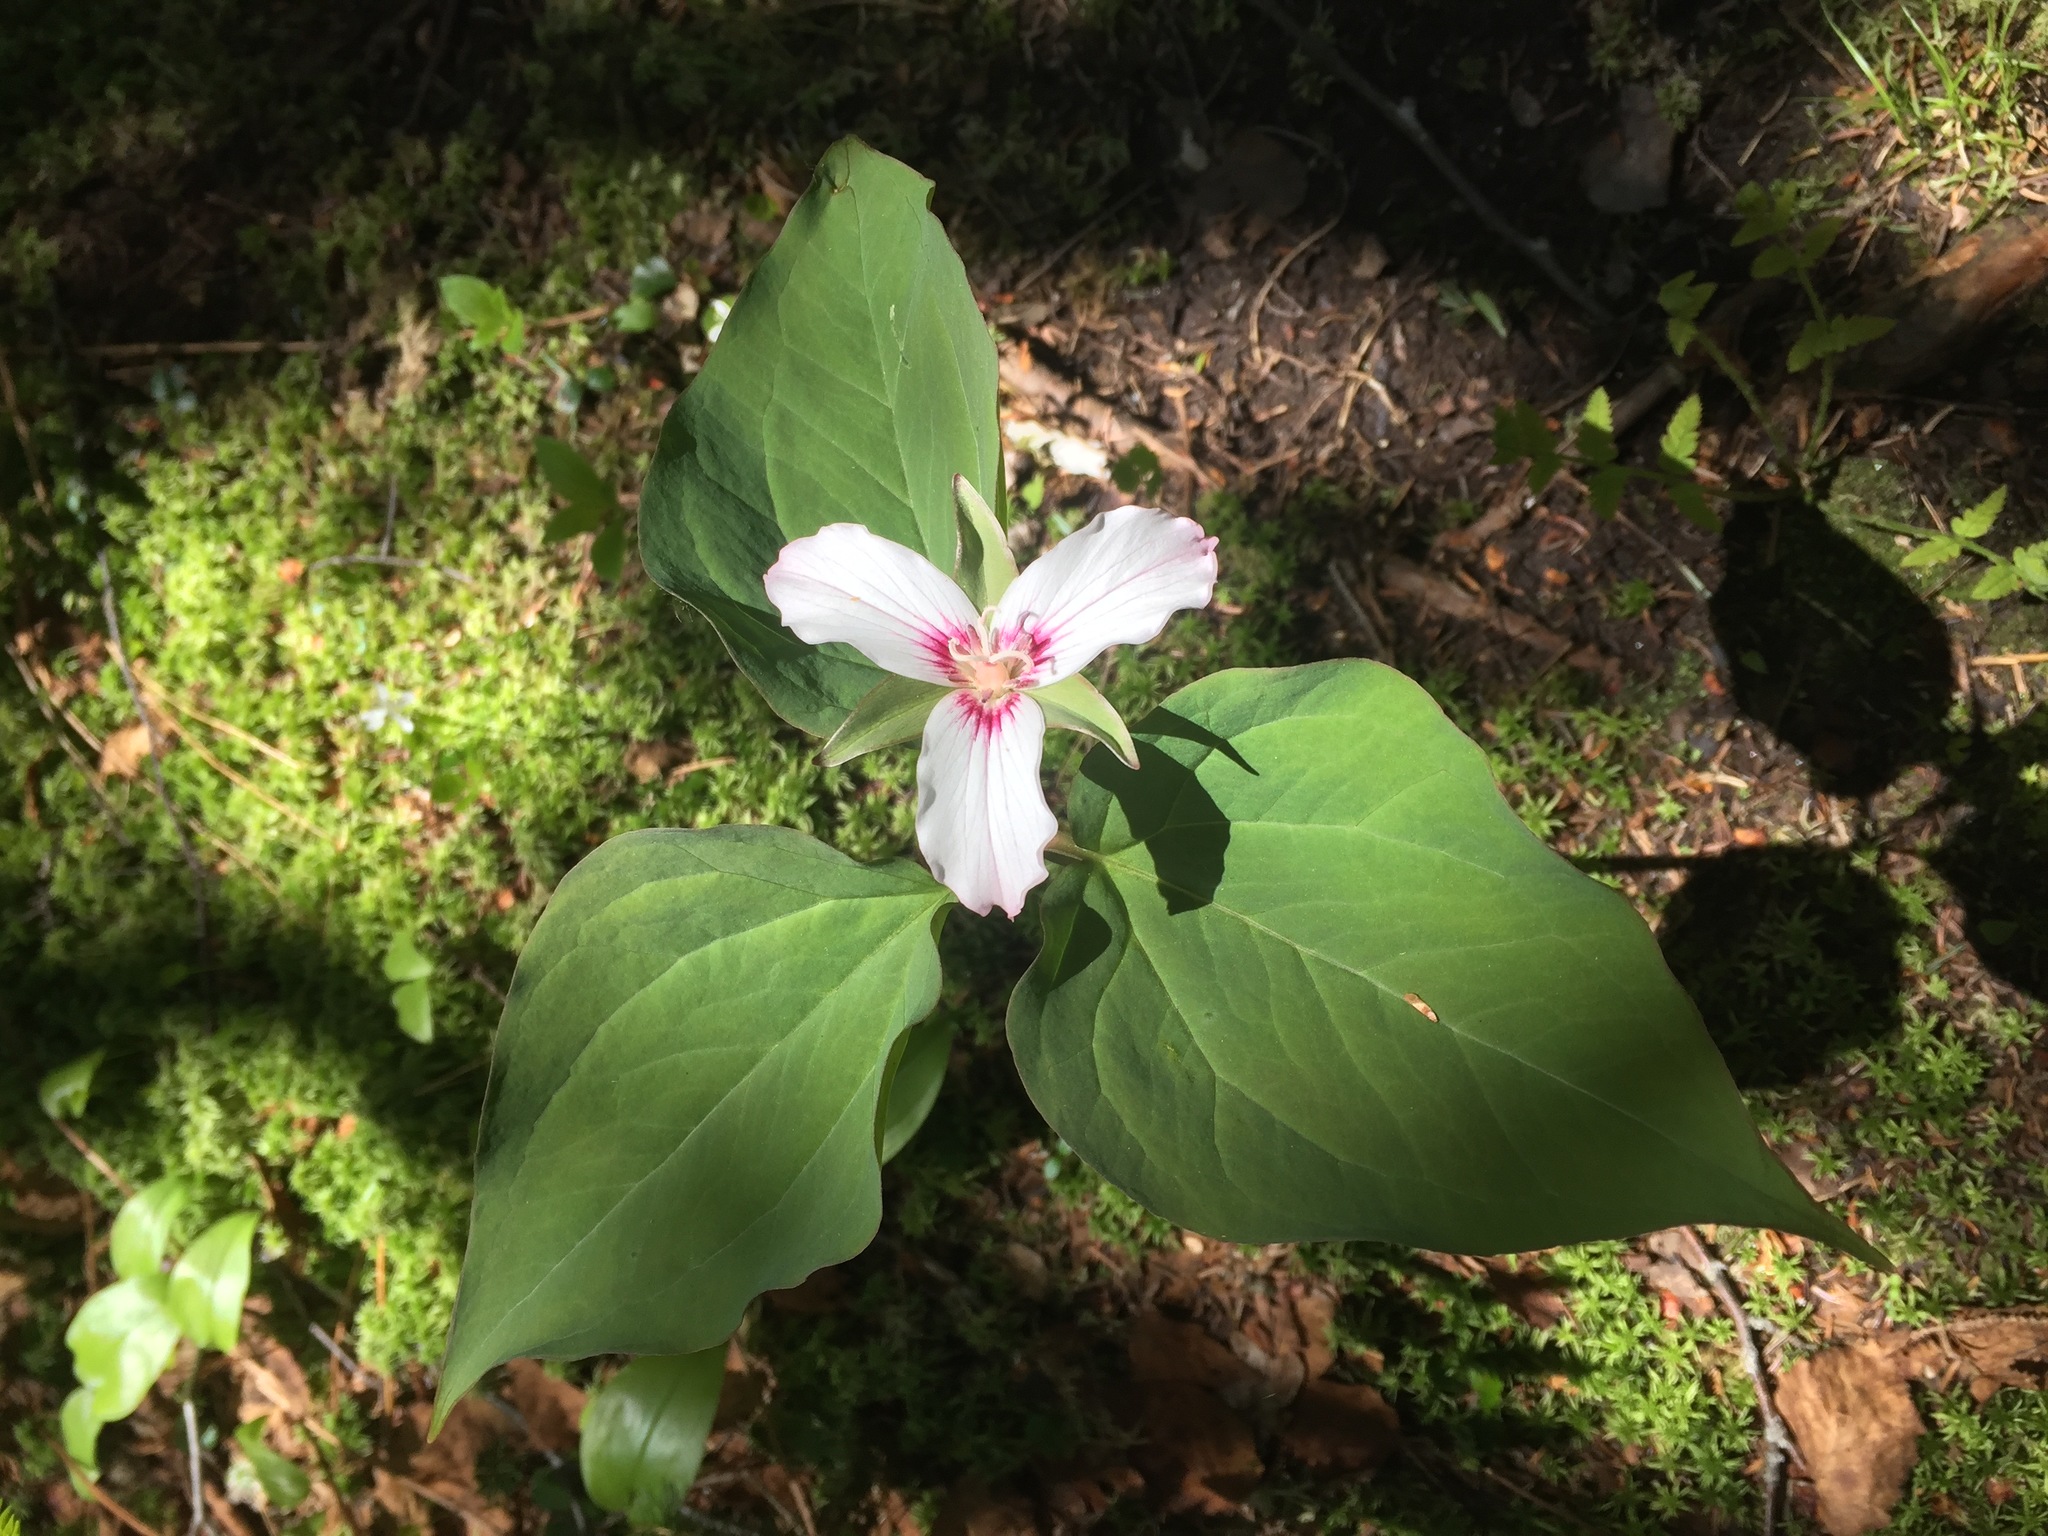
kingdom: Plantae
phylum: Tracheophyta
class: Liliopsida
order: Liliales
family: Melanthiaceae
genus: Trillium
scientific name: Trillium undulatum
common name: Paint trillium
